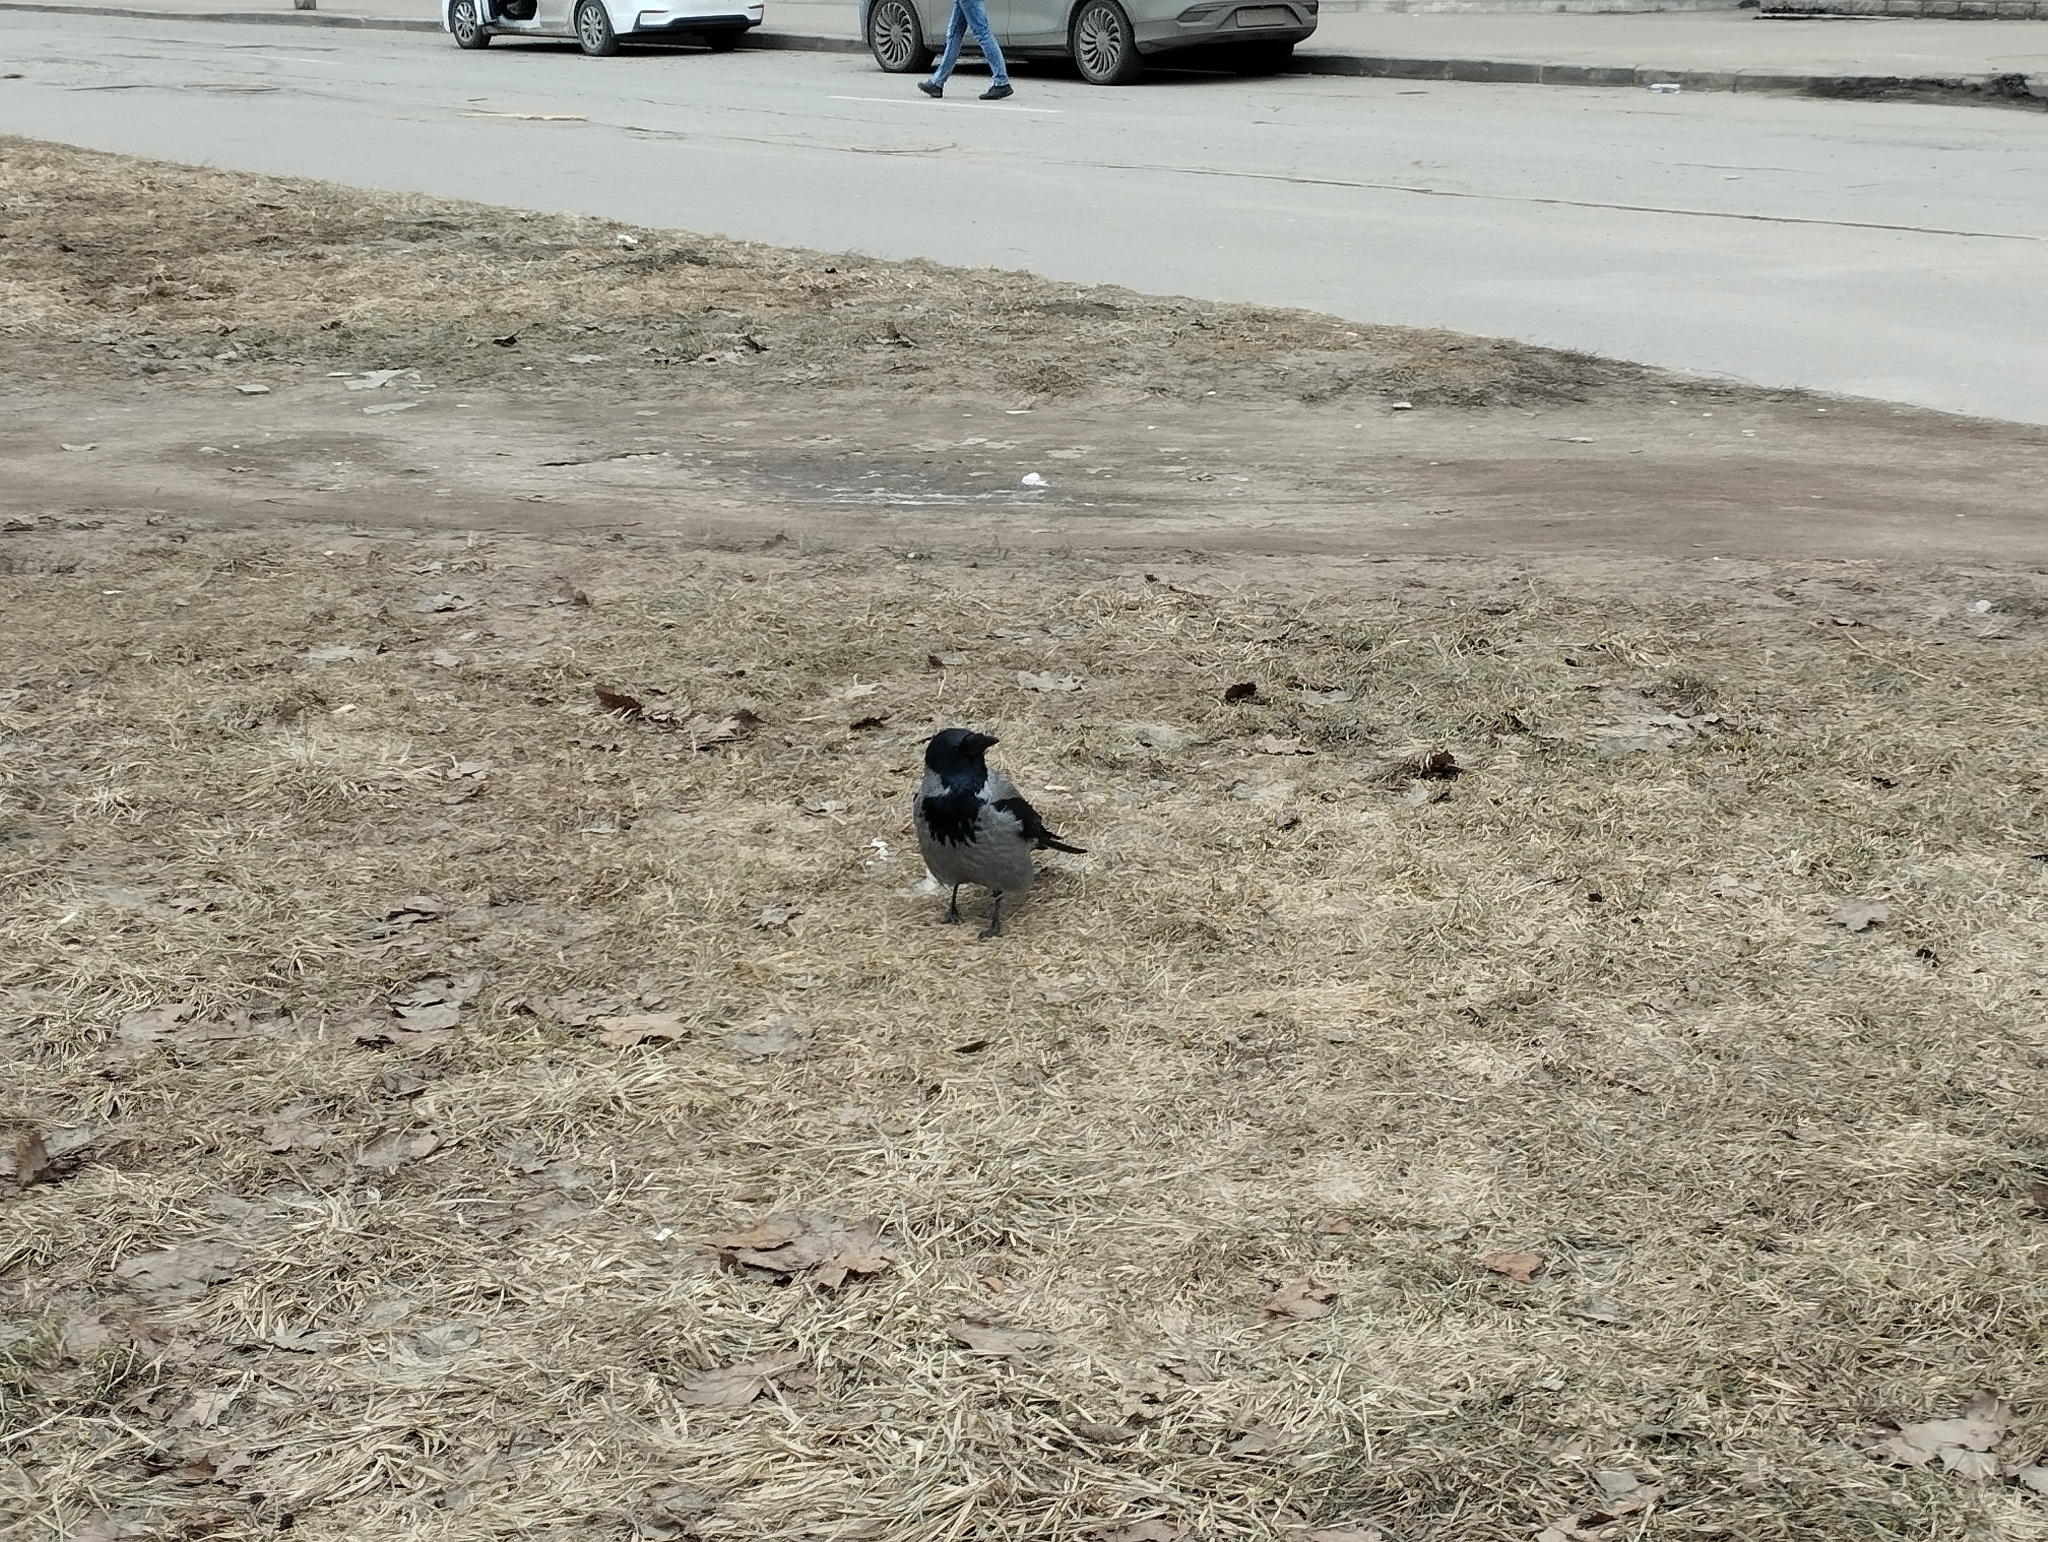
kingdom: Animalia
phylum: Chordata
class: Aves
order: Passeriformes
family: Corvidae
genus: Corvus
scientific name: Corvus cornix
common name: Hooded crow
